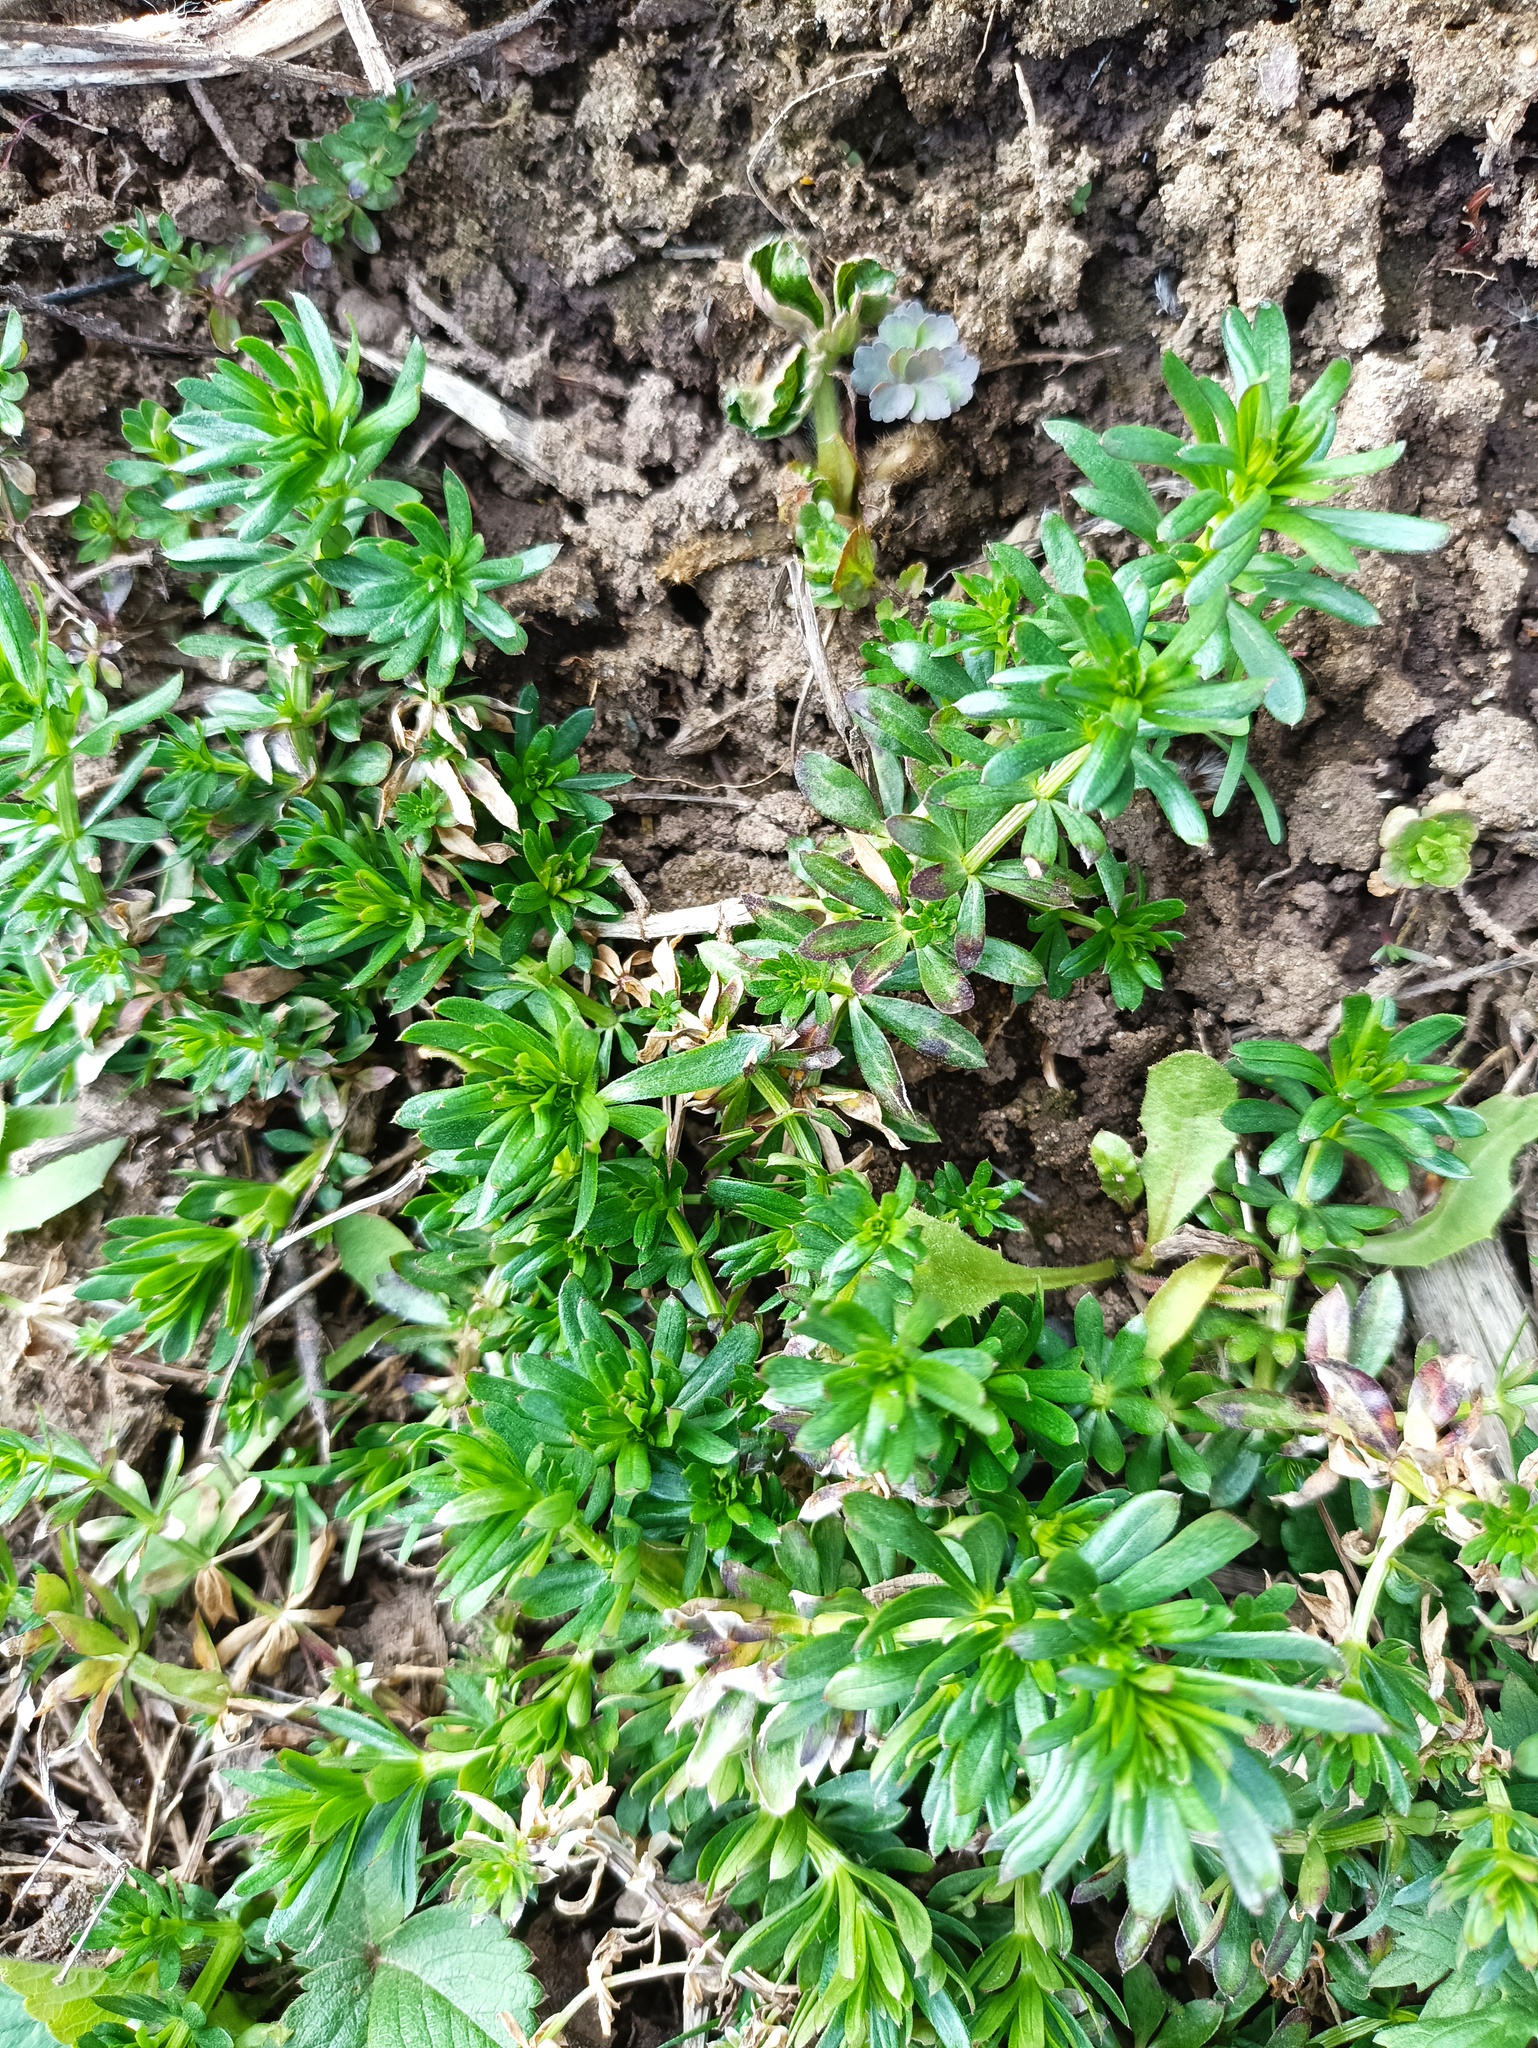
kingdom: Plantae
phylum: Tracheophyta
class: Magnoliopsida
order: Gentianales
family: Rubiaceae
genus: Galium
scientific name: Galium mollugo
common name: Hedge bedstraw
